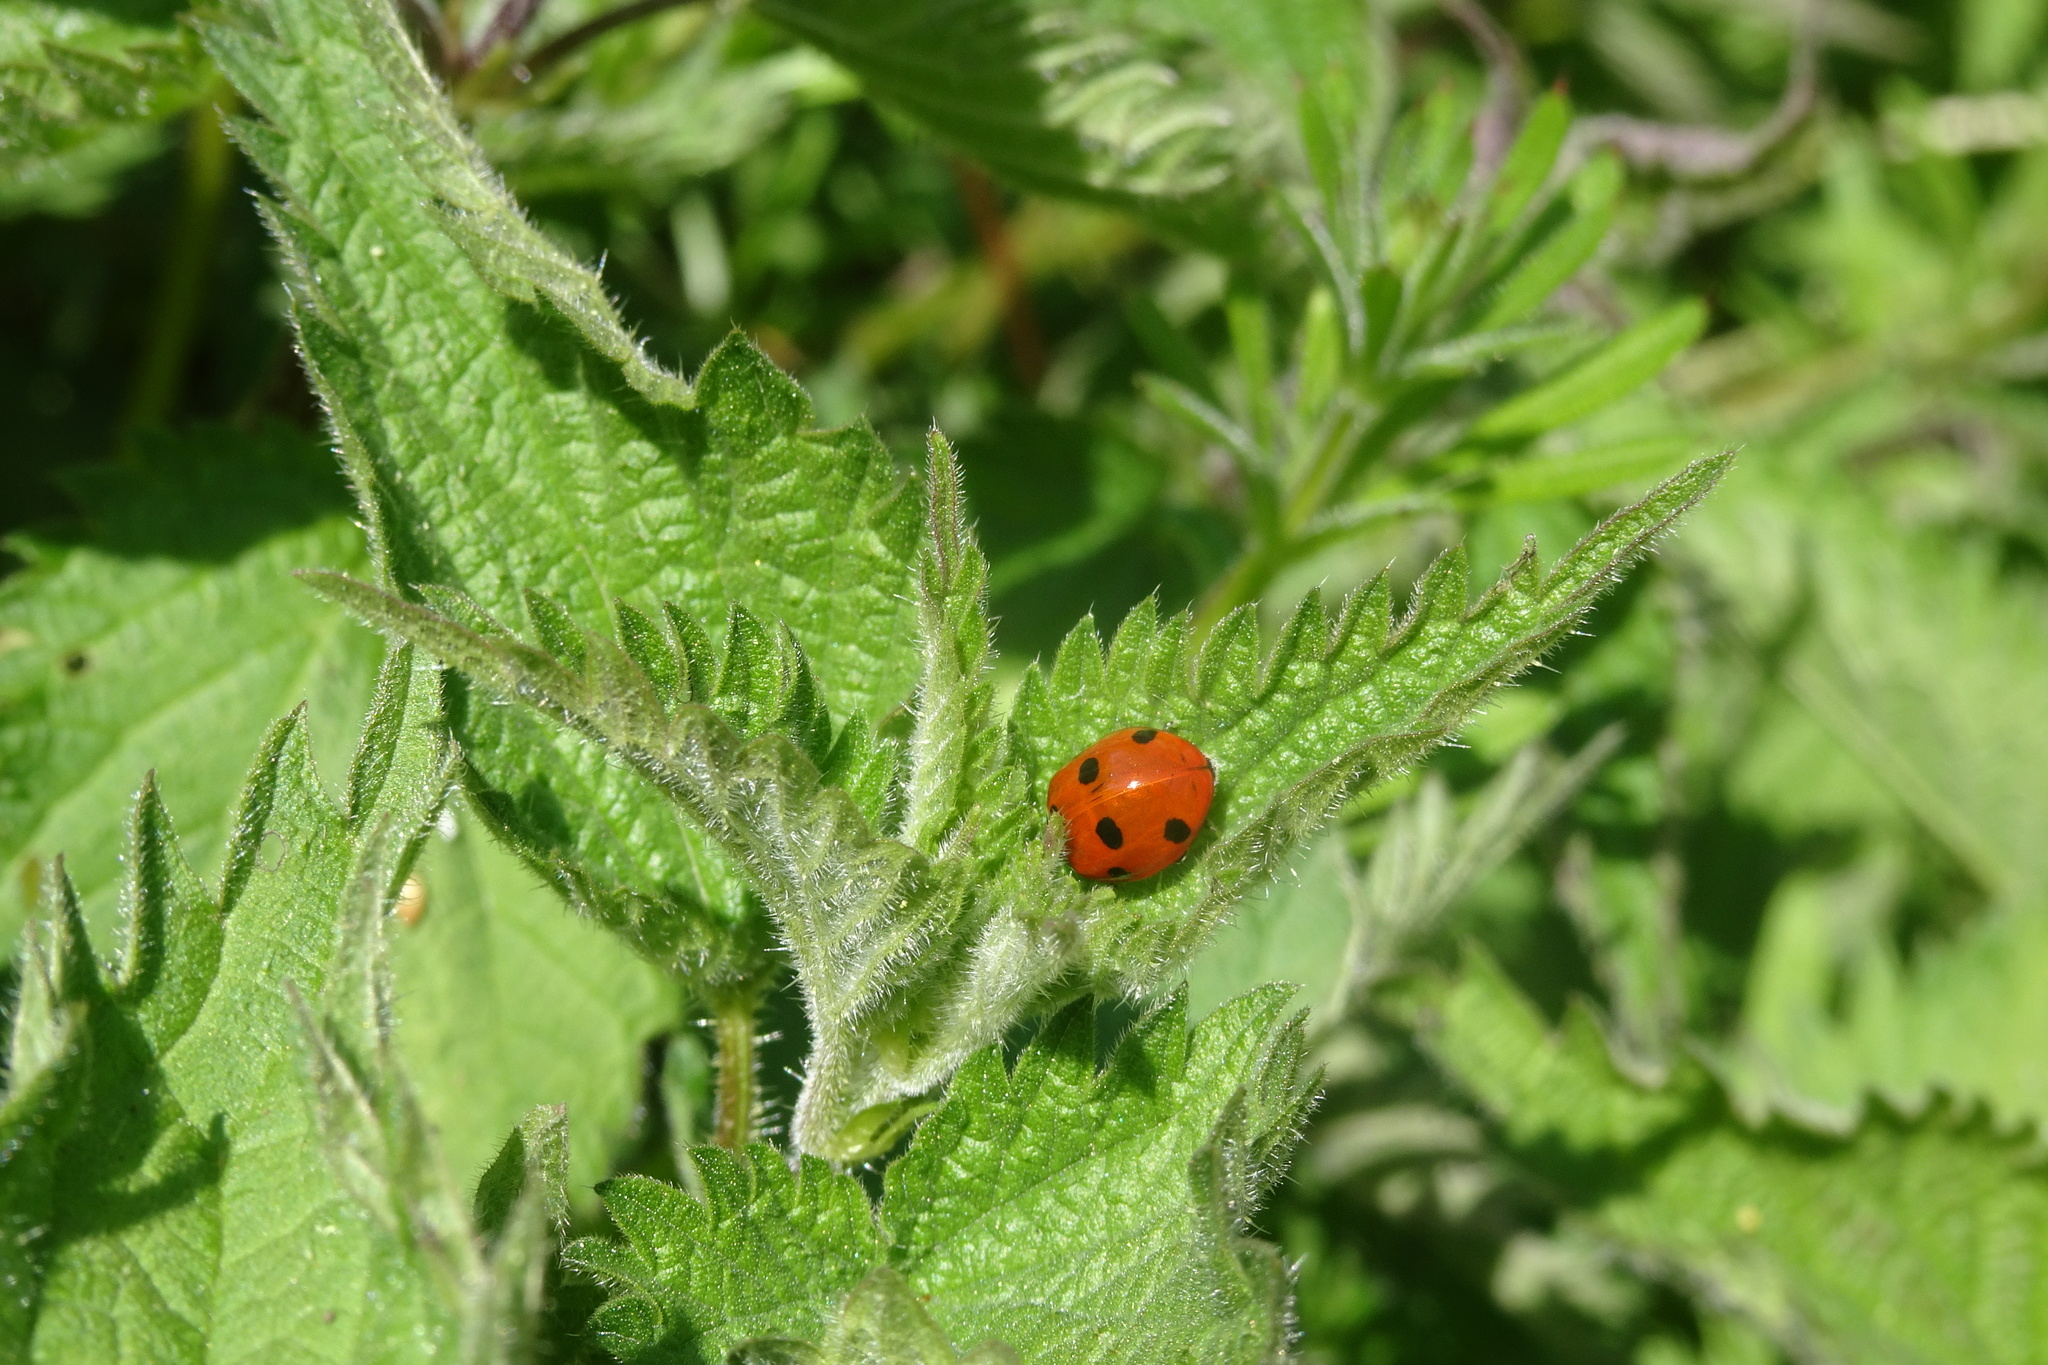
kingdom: Animalia
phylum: Arthropoda
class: Insecta
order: Coleoptera
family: Coccinellidae
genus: Coccinella
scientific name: Coccinella septempunctata
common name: Sevenspotted lady beetle
